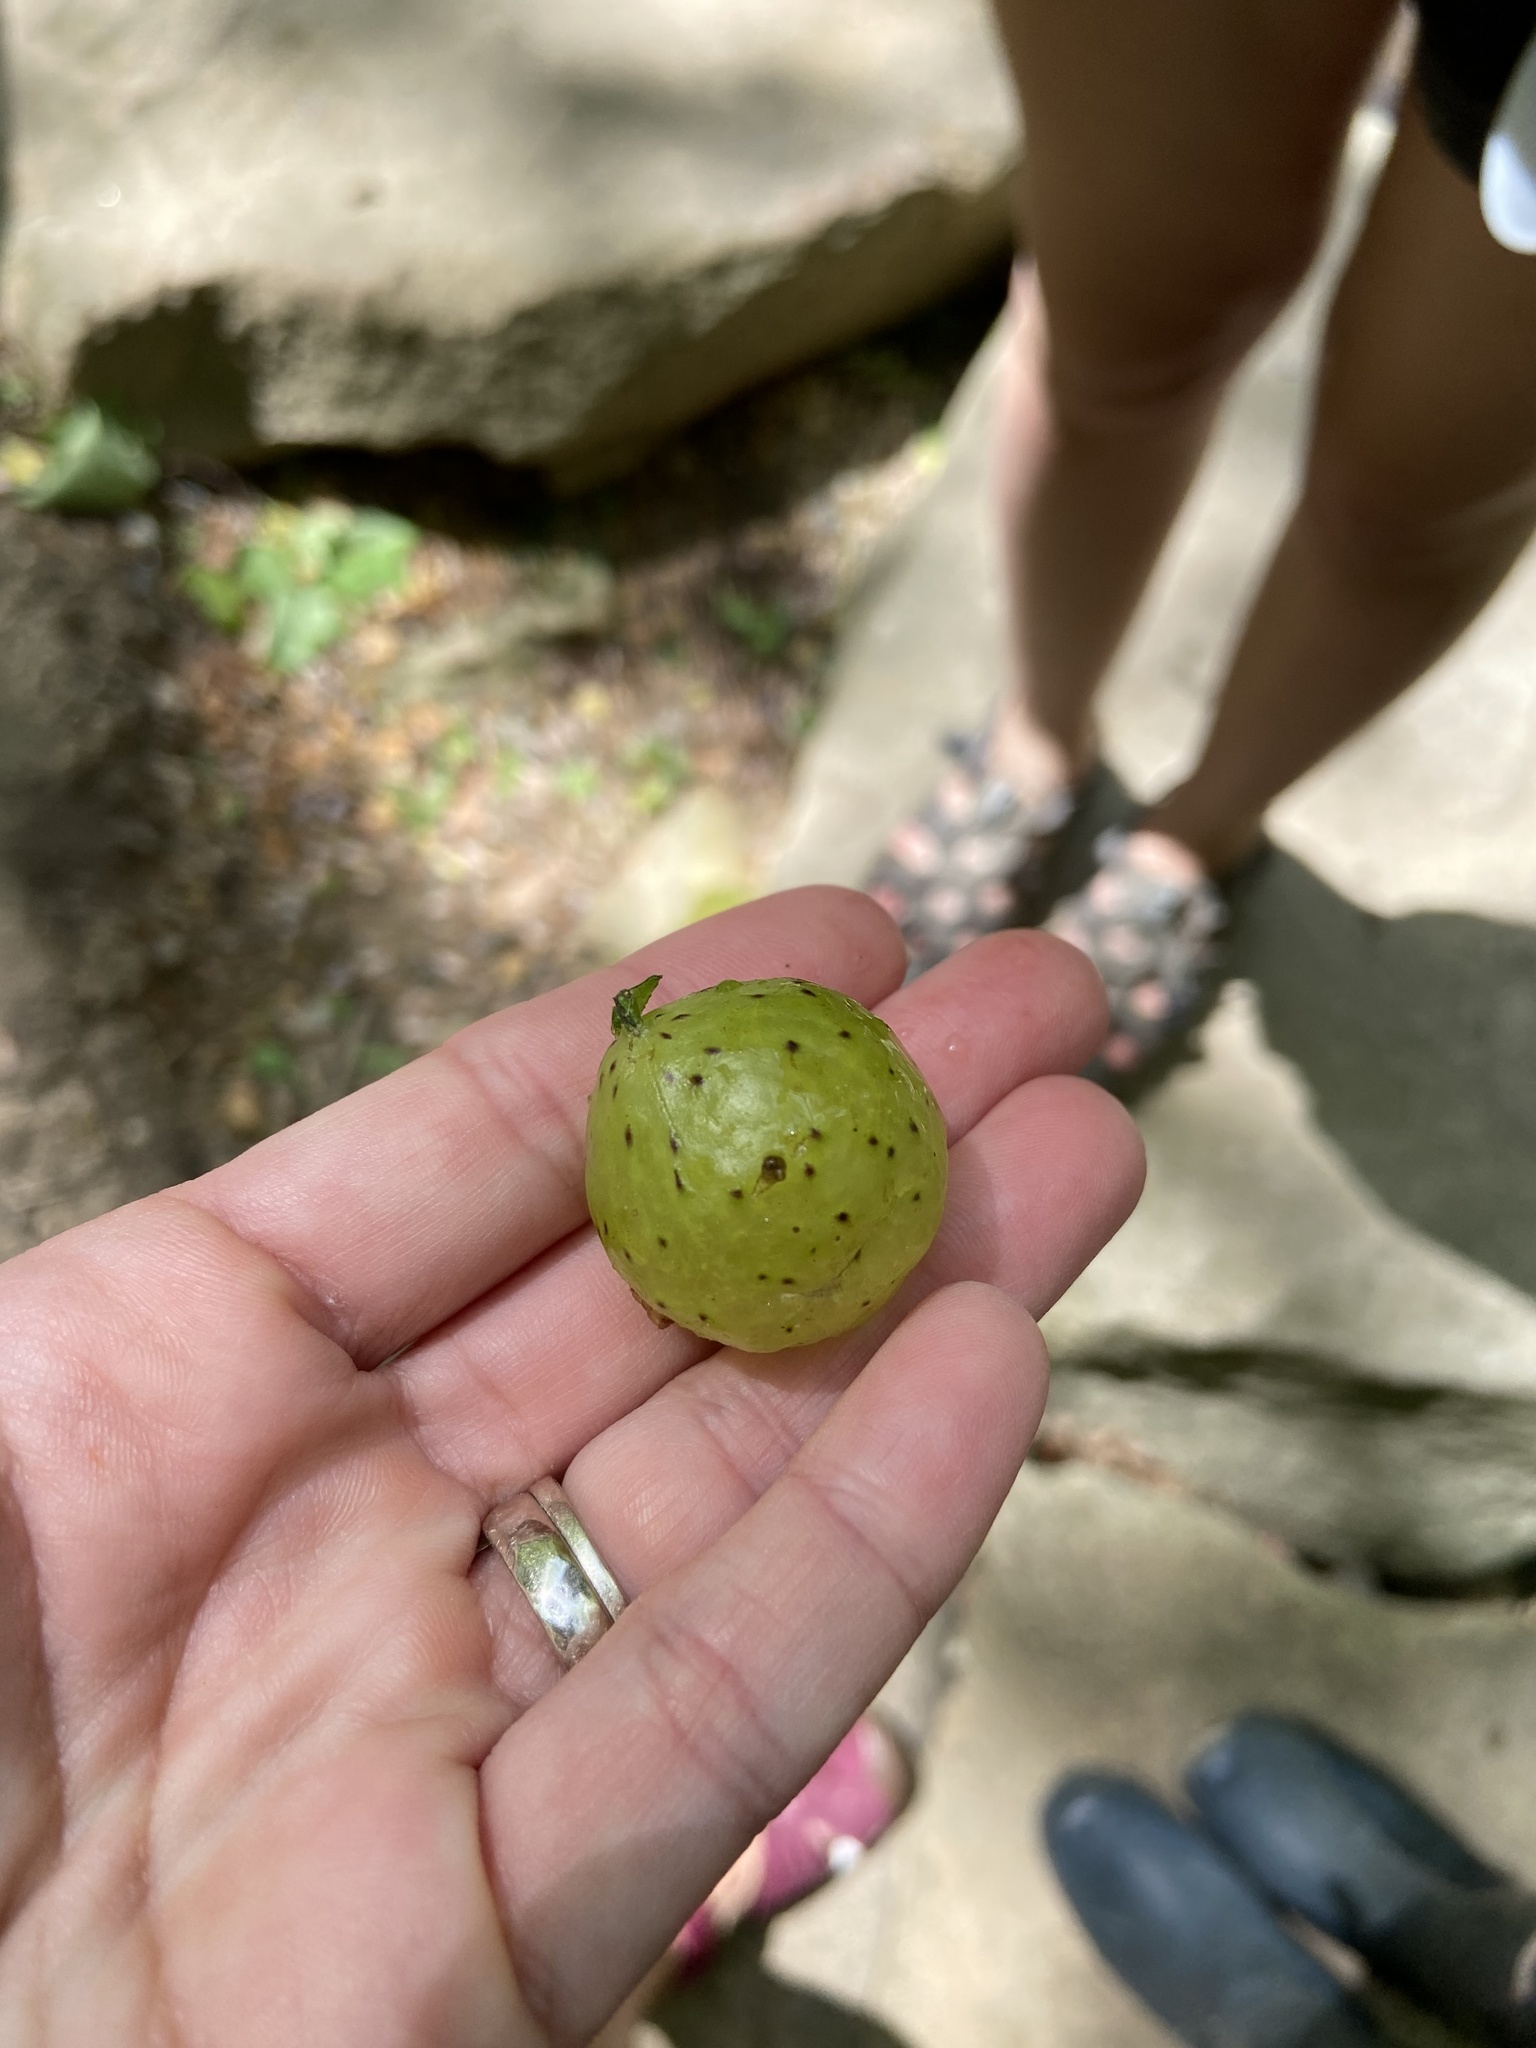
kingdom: Animalia
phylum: Arthropoda
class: Insecta
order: Hymenoptera
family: Cynipidae
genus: Amphibolips
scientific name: Amphibolips
